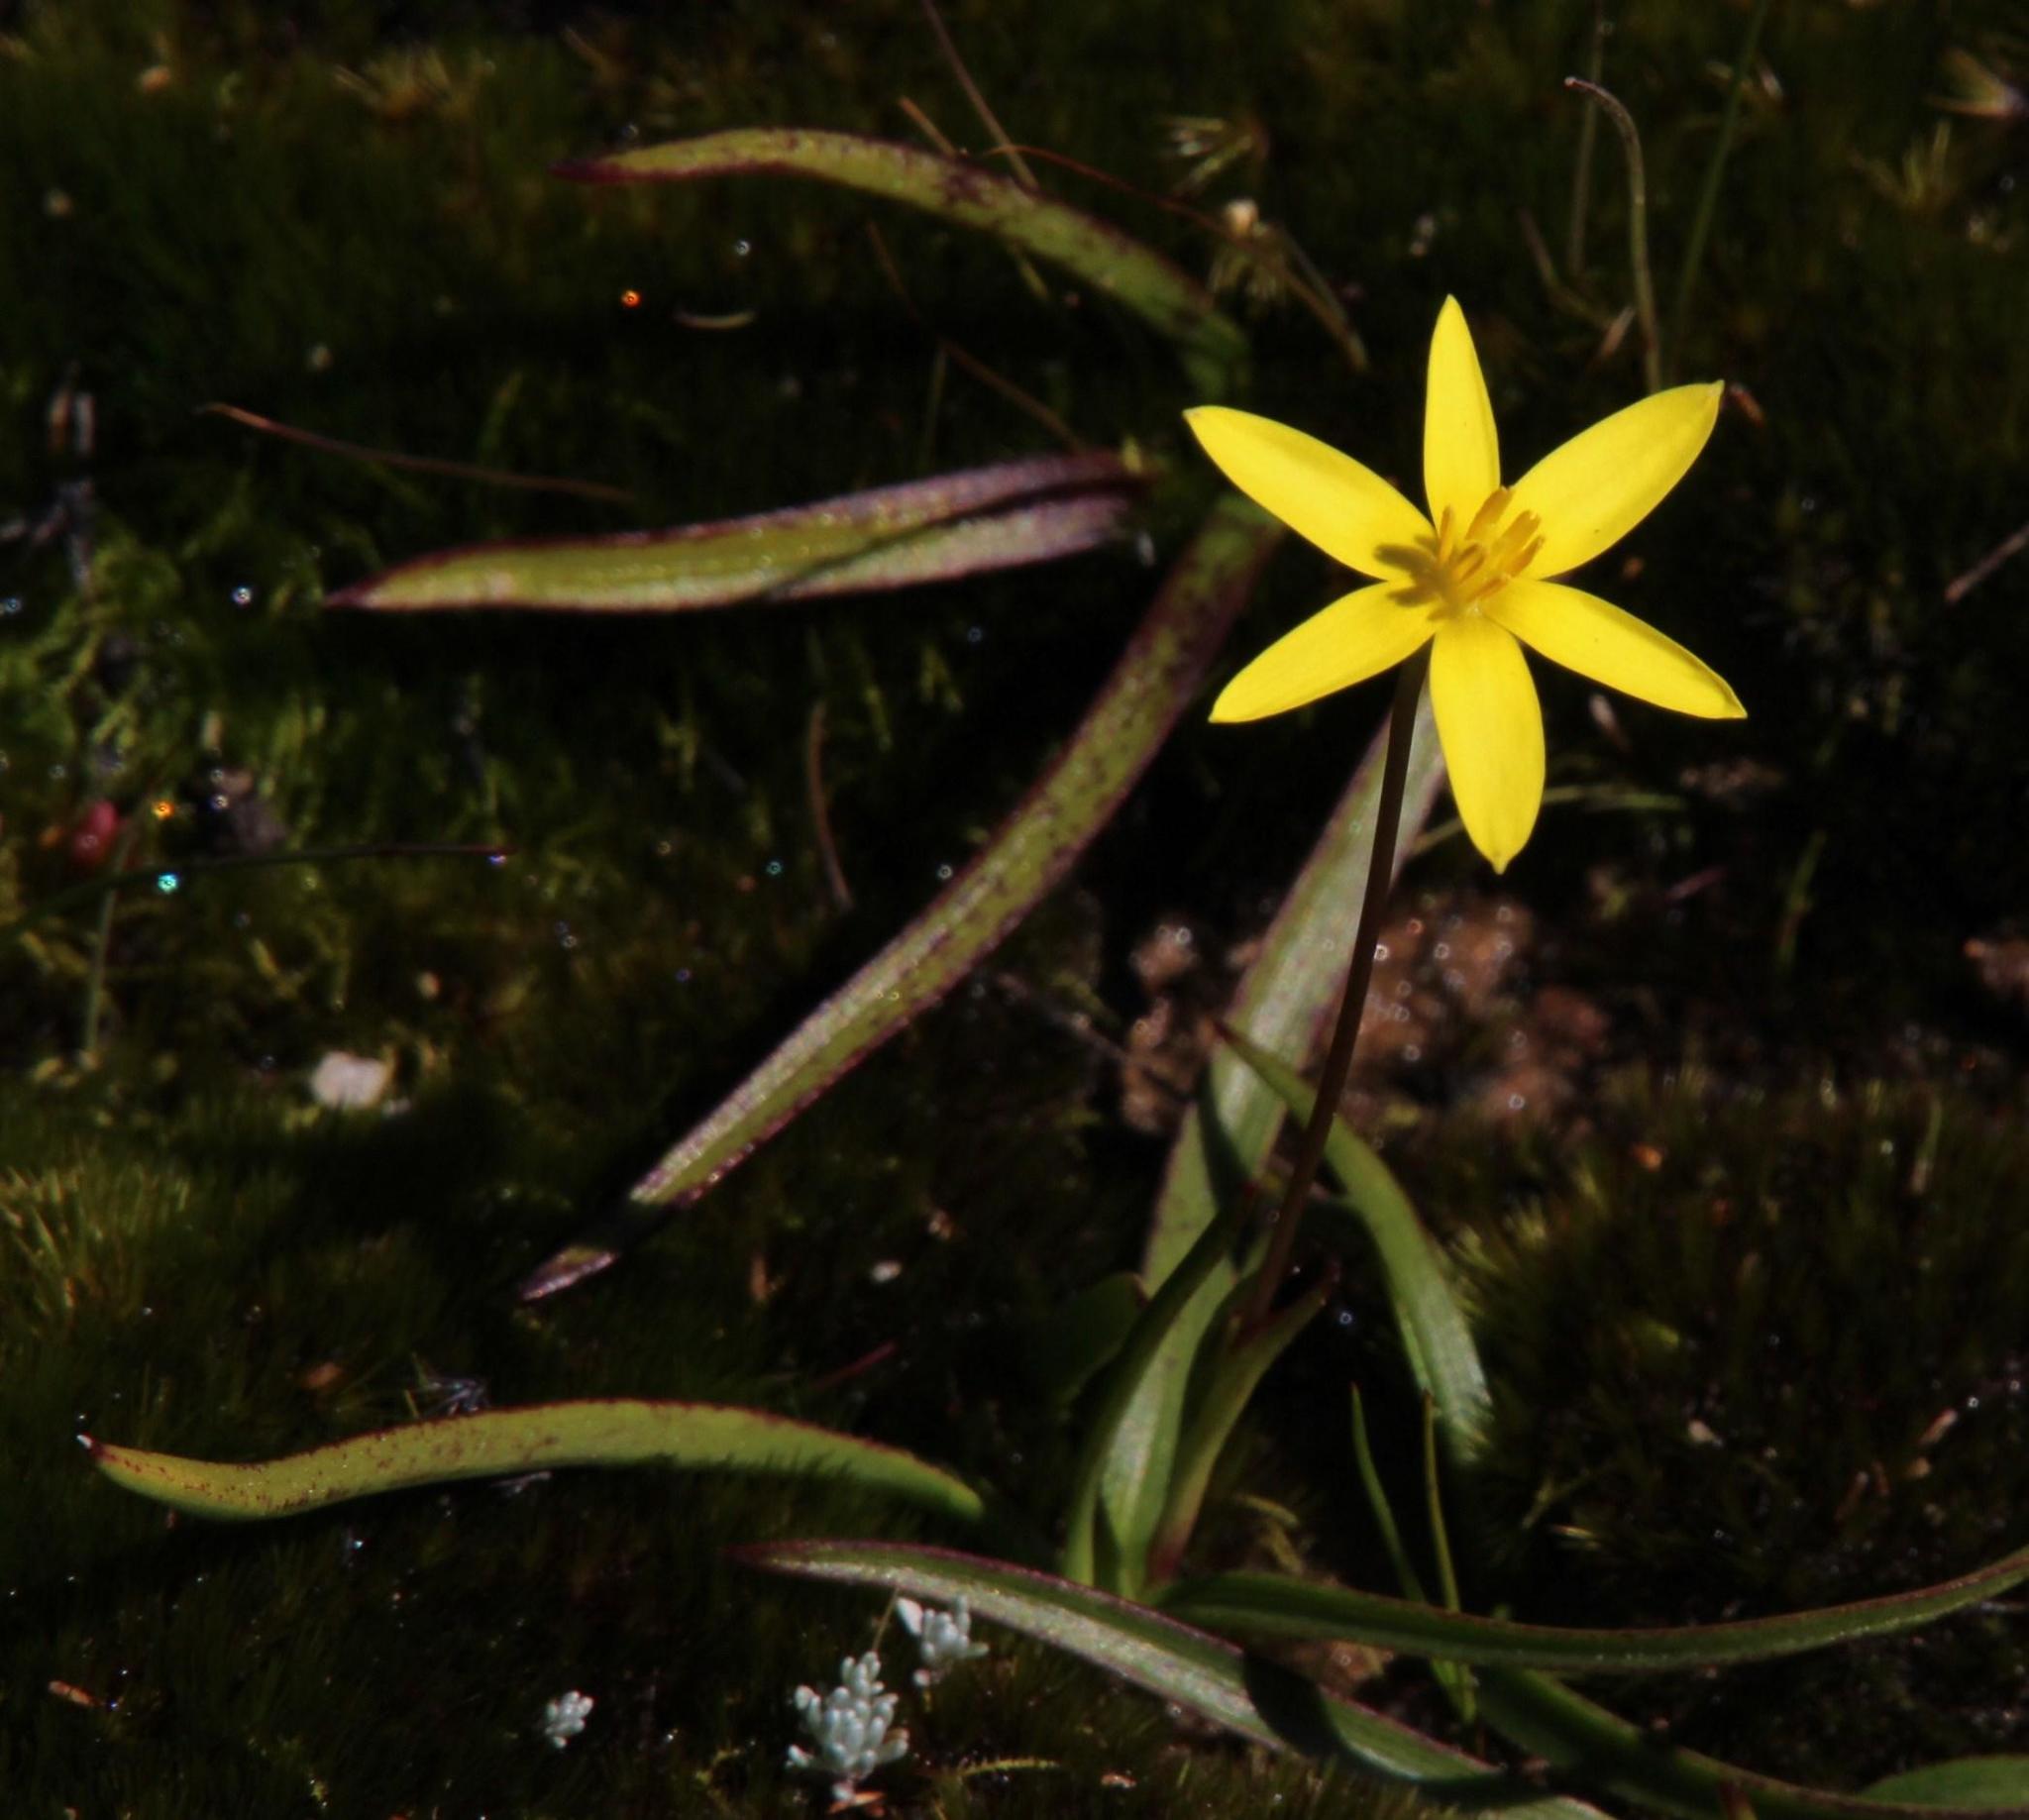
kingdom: Plantae
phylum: Tracheophyta
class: Liliopsida
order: Asparagales
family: Hypoxidaceae
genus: Pauridia
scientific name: Pauridia monticola
